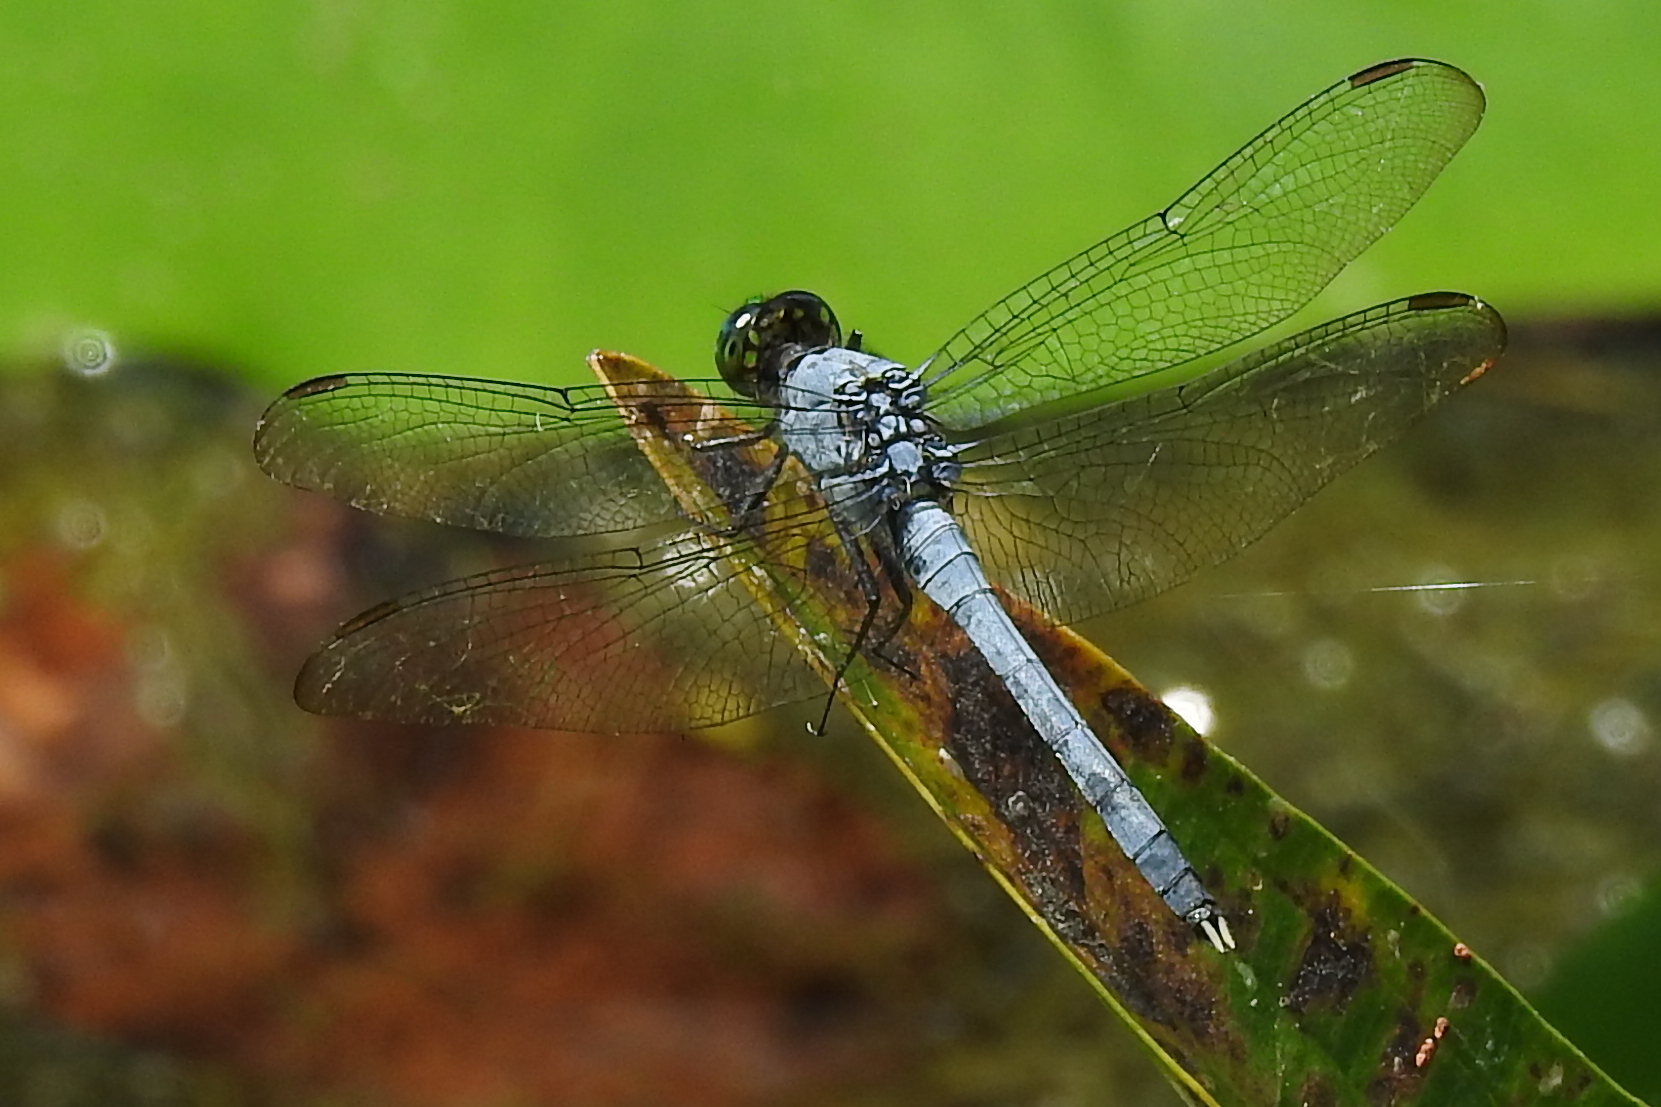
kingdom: Animalia
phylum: Arthropoda
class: Insecta
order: Odonata
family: Libellulidae
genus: Erythemis
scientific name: Erythemis simplicicollis
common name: Eastern pondhawk
